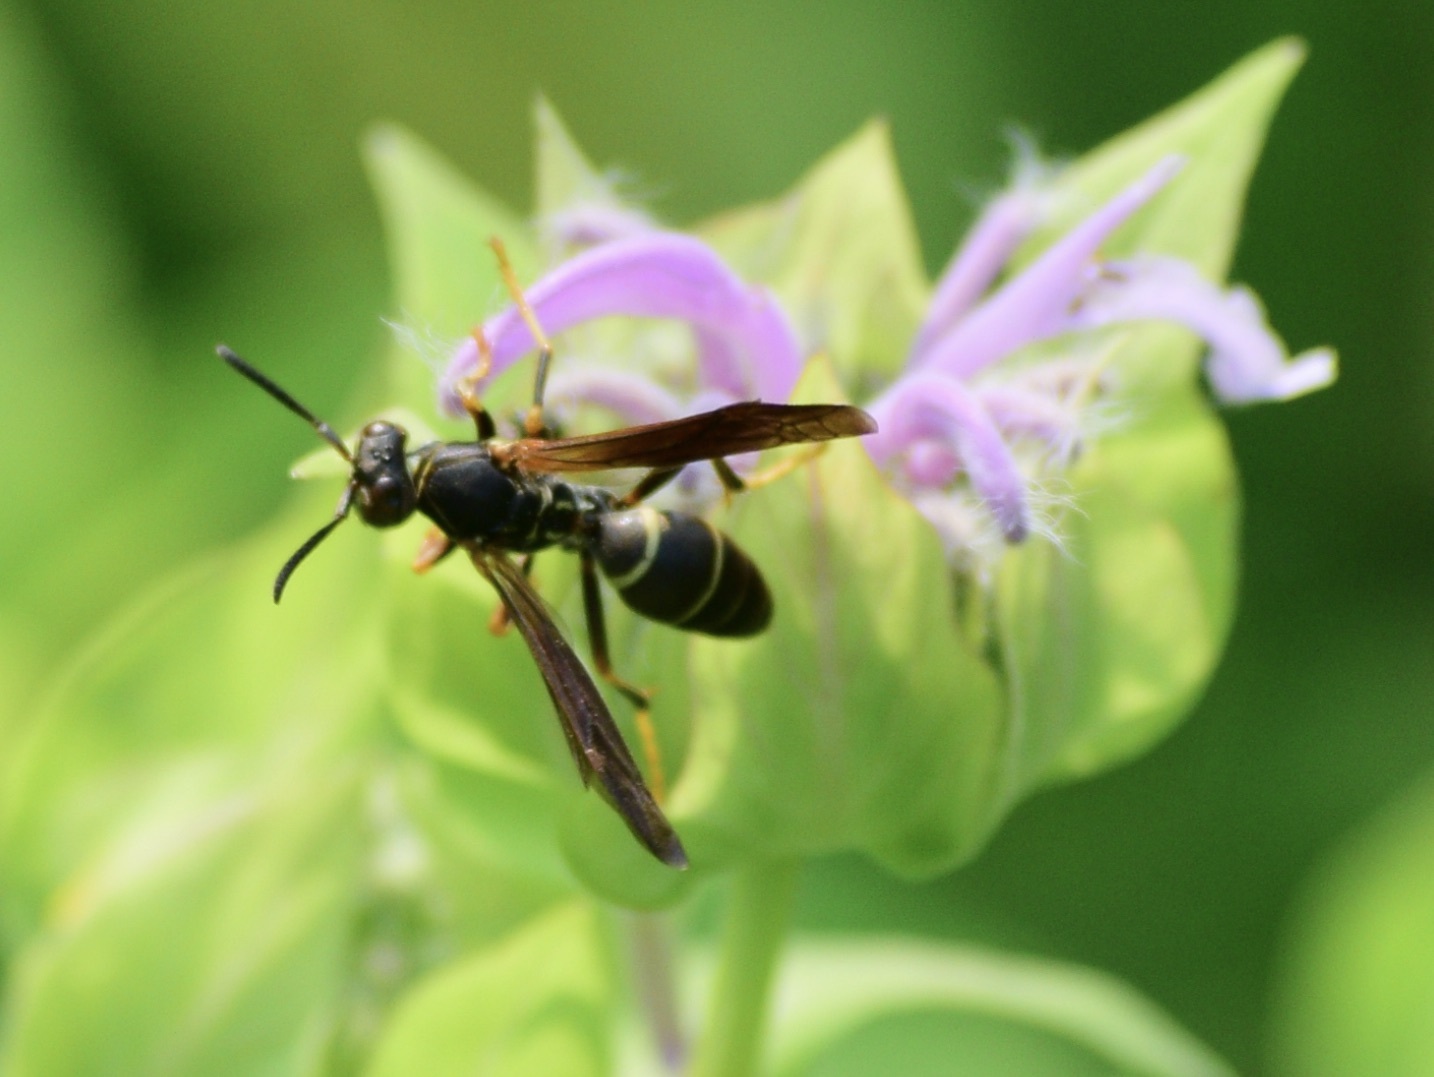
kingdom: Animalia
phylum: Arthropoda
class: Insecta
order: Hymenoptera
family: Eumenidae
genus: Polistes
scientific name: Polistes fuscatus
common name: Dark paper wasp
